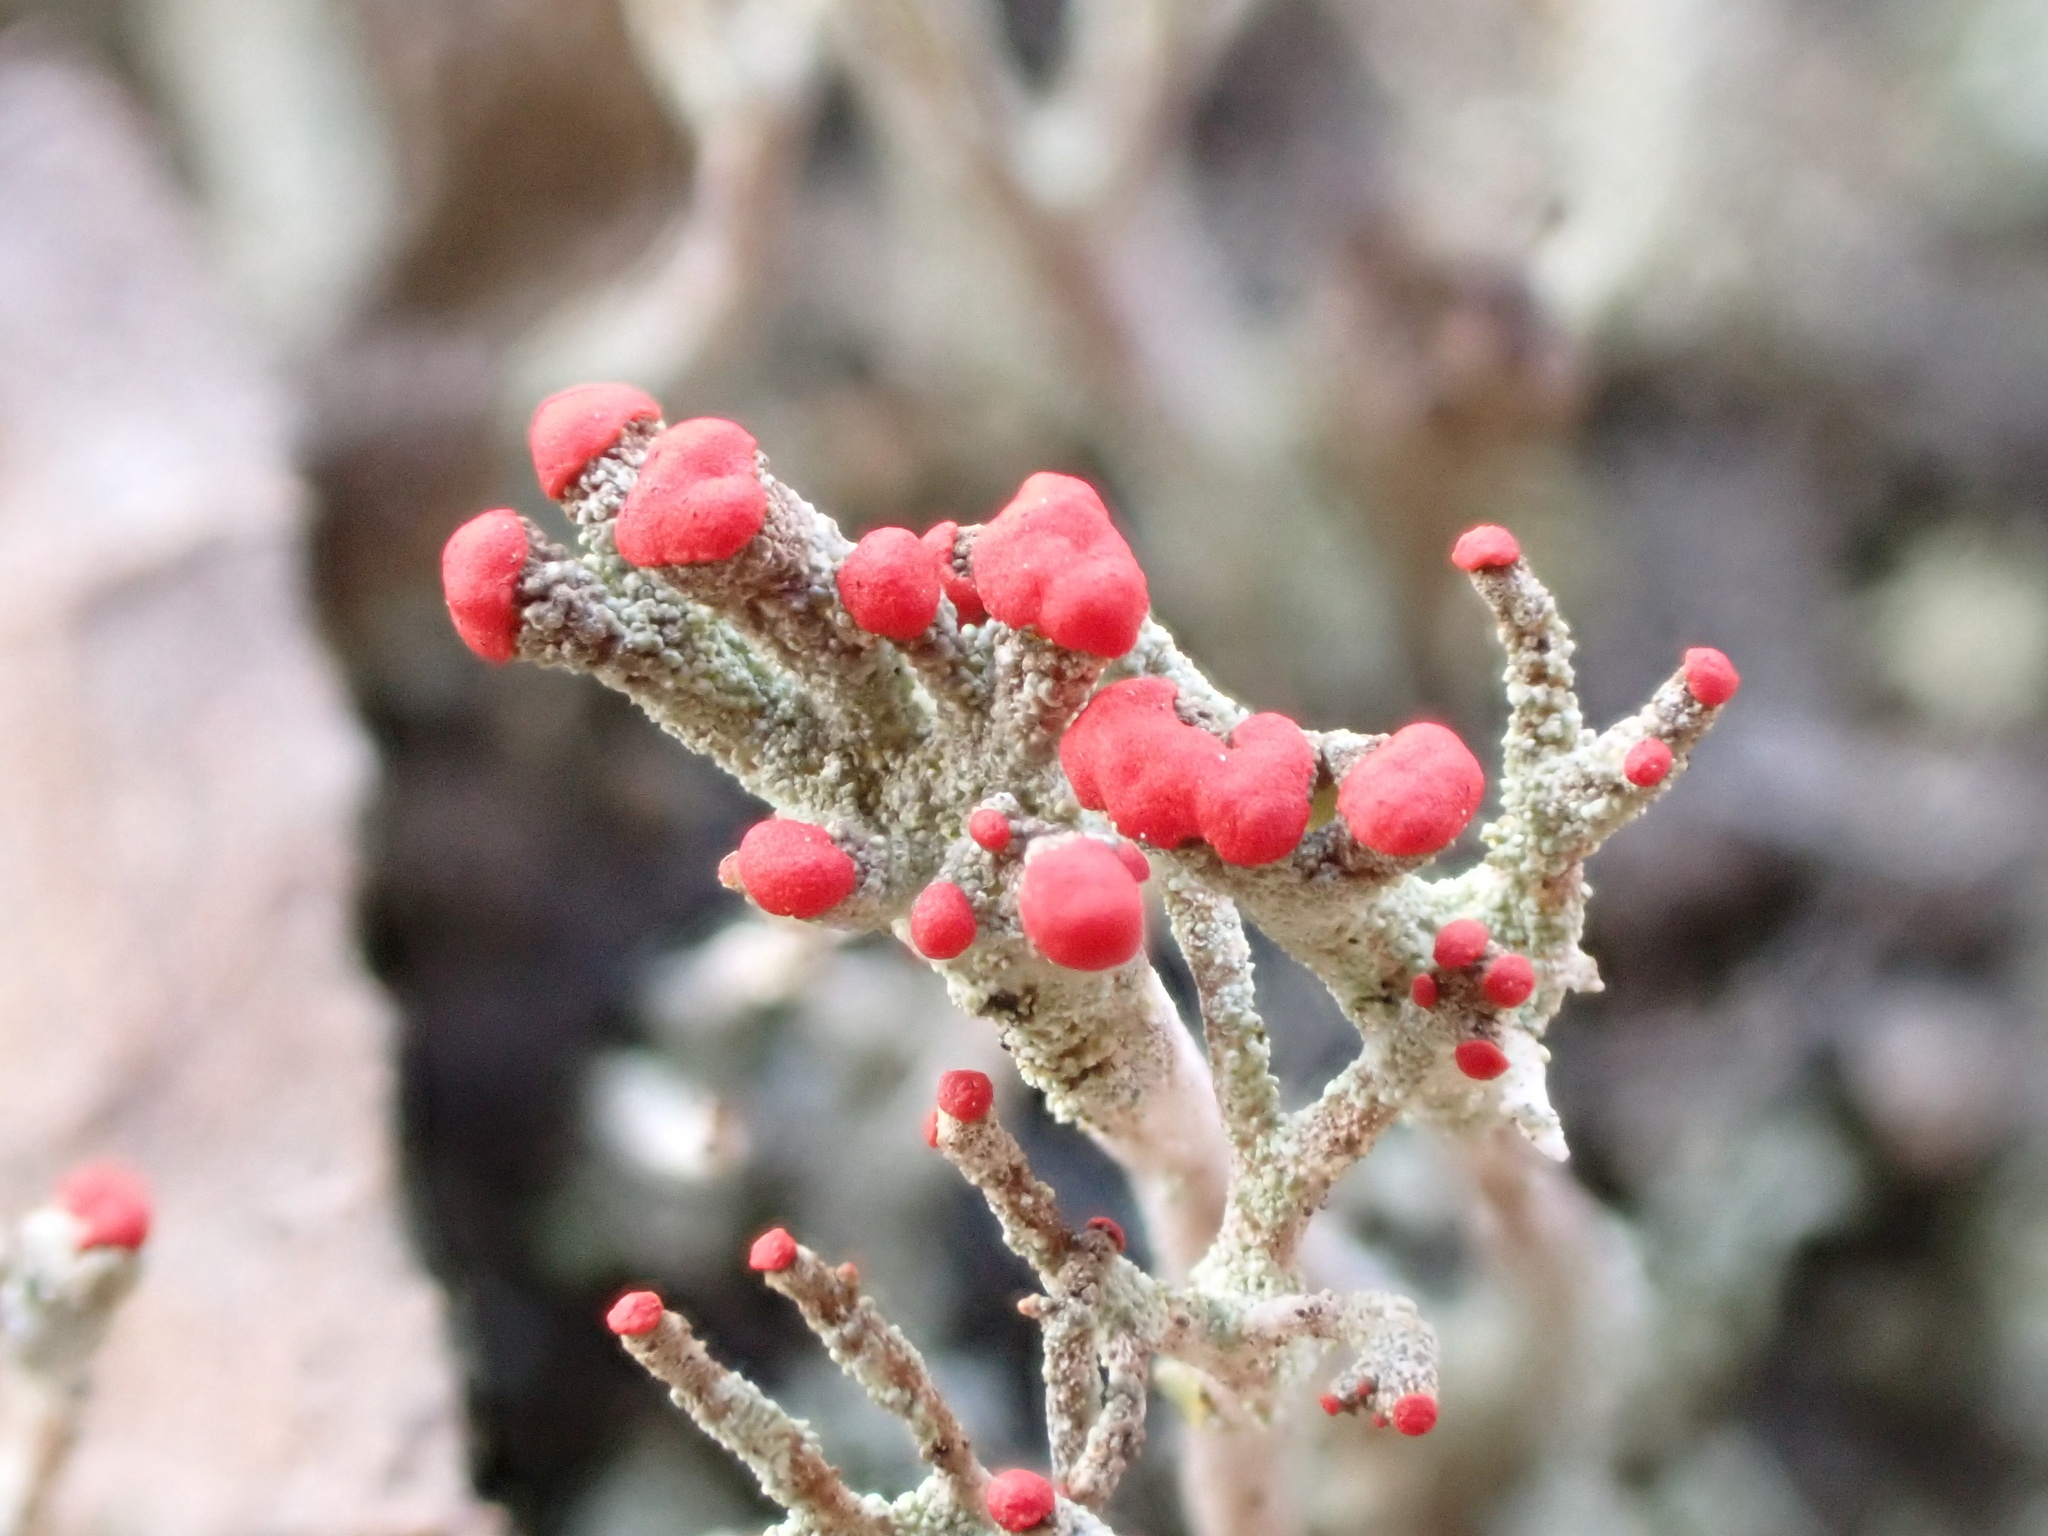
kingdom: Fungi
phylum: Ascomycota
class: Lecanoromycetes
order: Lecanorales
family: Cladoniaceae
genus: Cladonia
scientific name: Cladonia floerkeana
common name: Gritty british soldiers lichen
